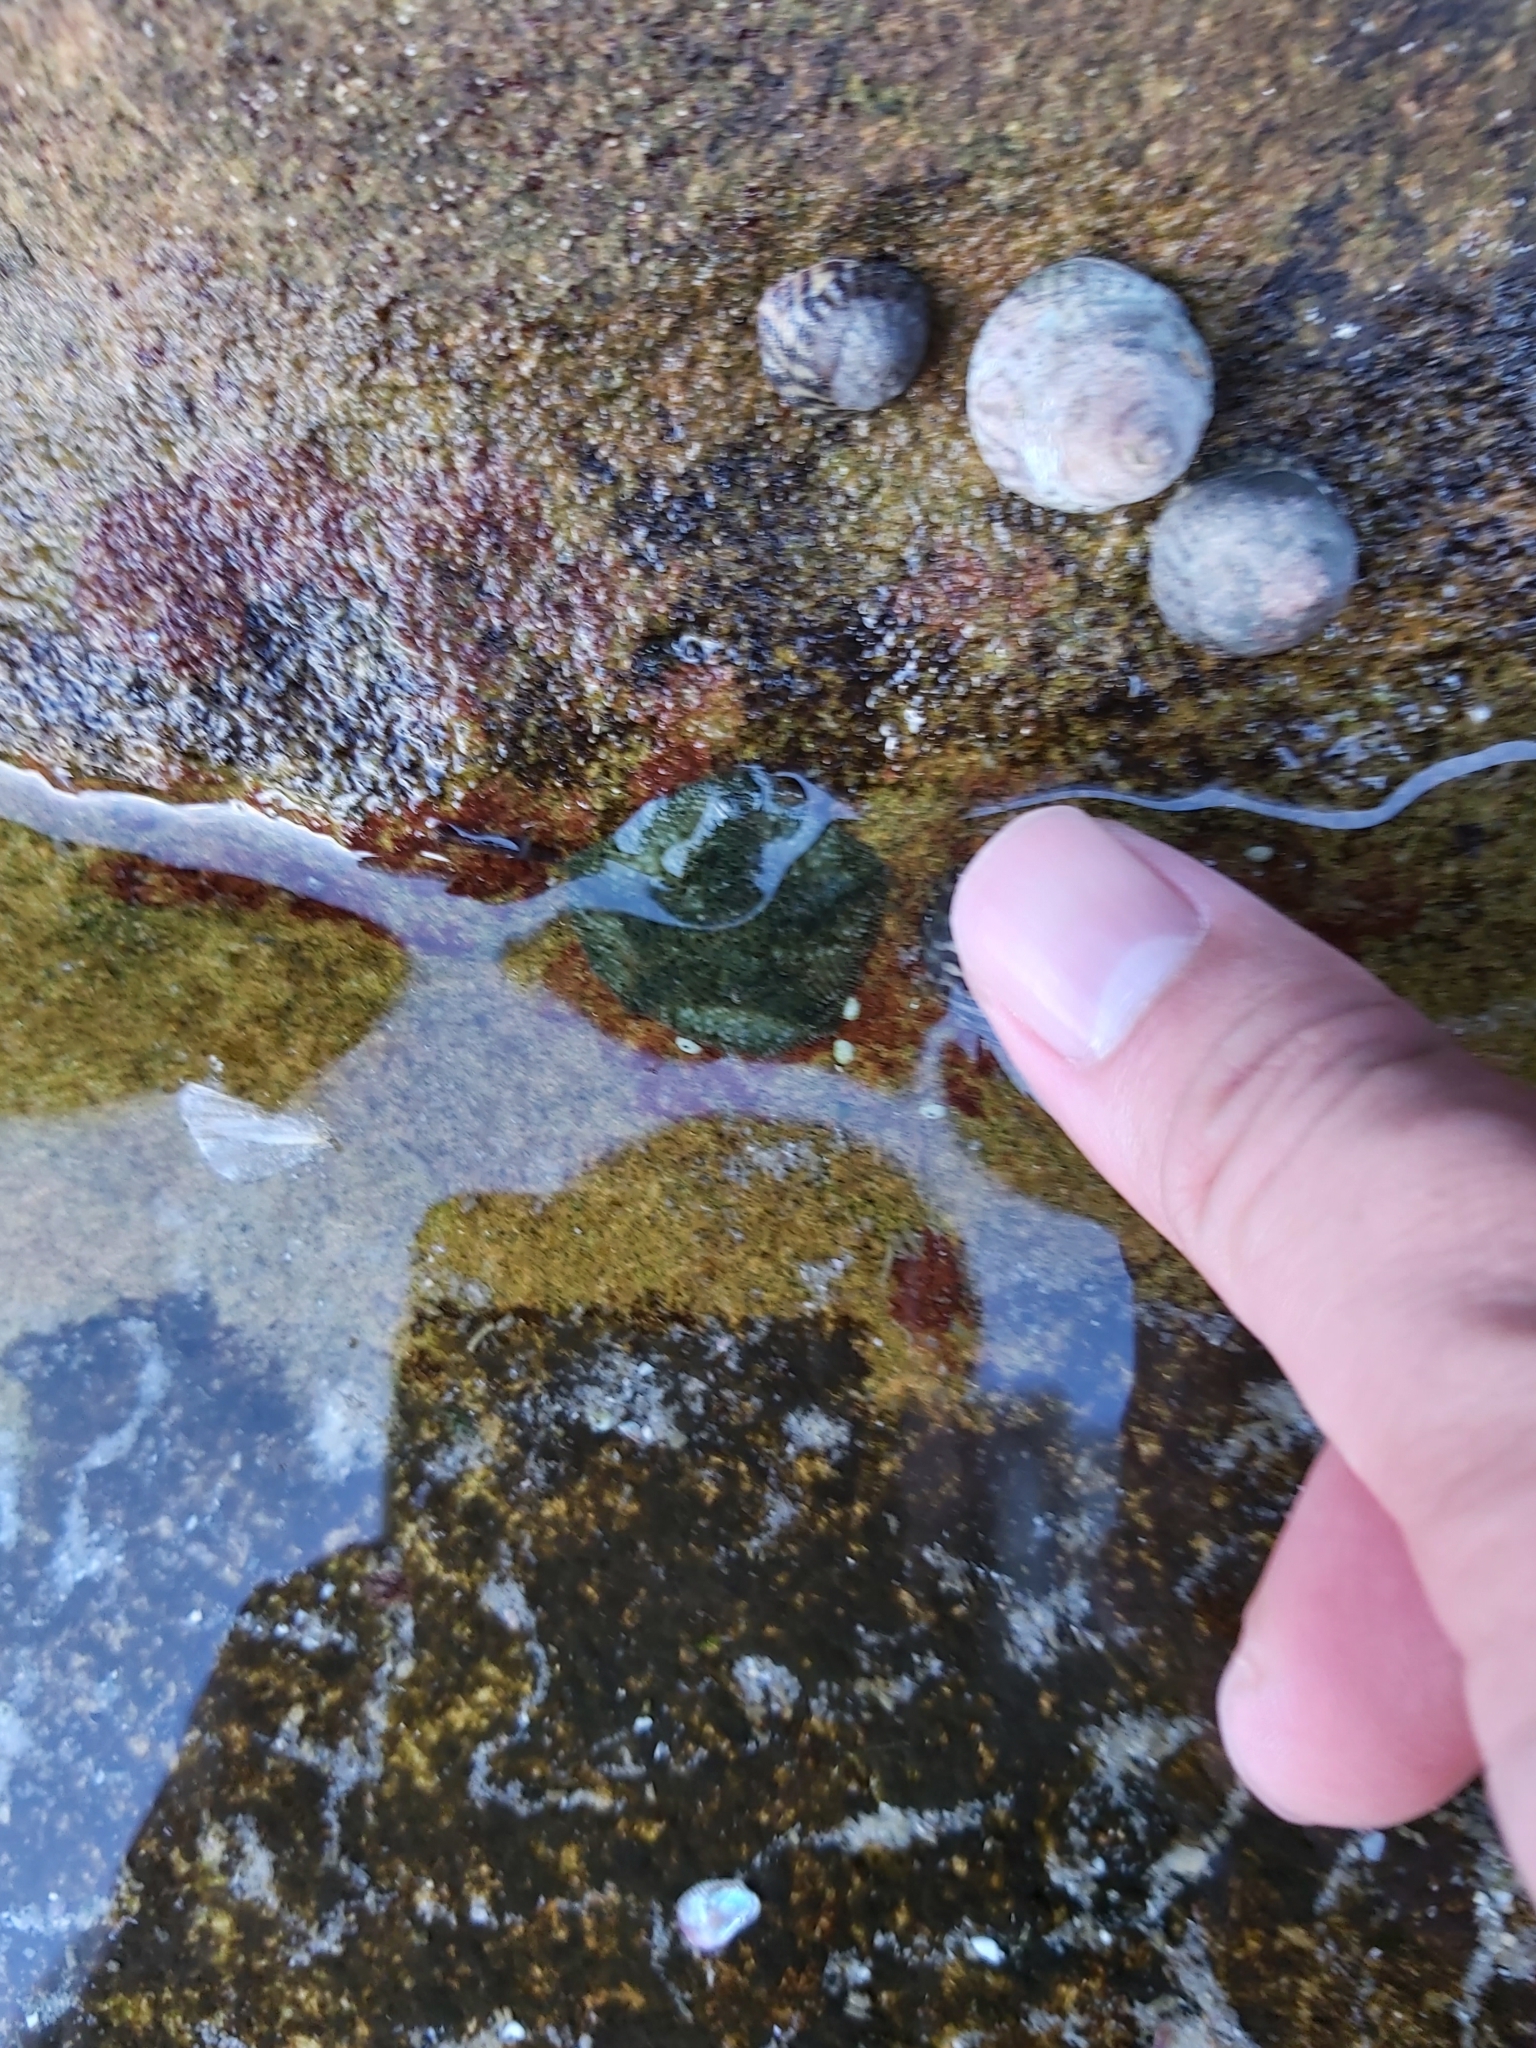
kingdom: Animalia
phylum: Echinodermata
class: Asteroidea
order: Valvatida
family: Asterinidae
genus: Parvulastra
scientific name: Parvulastra exigua
